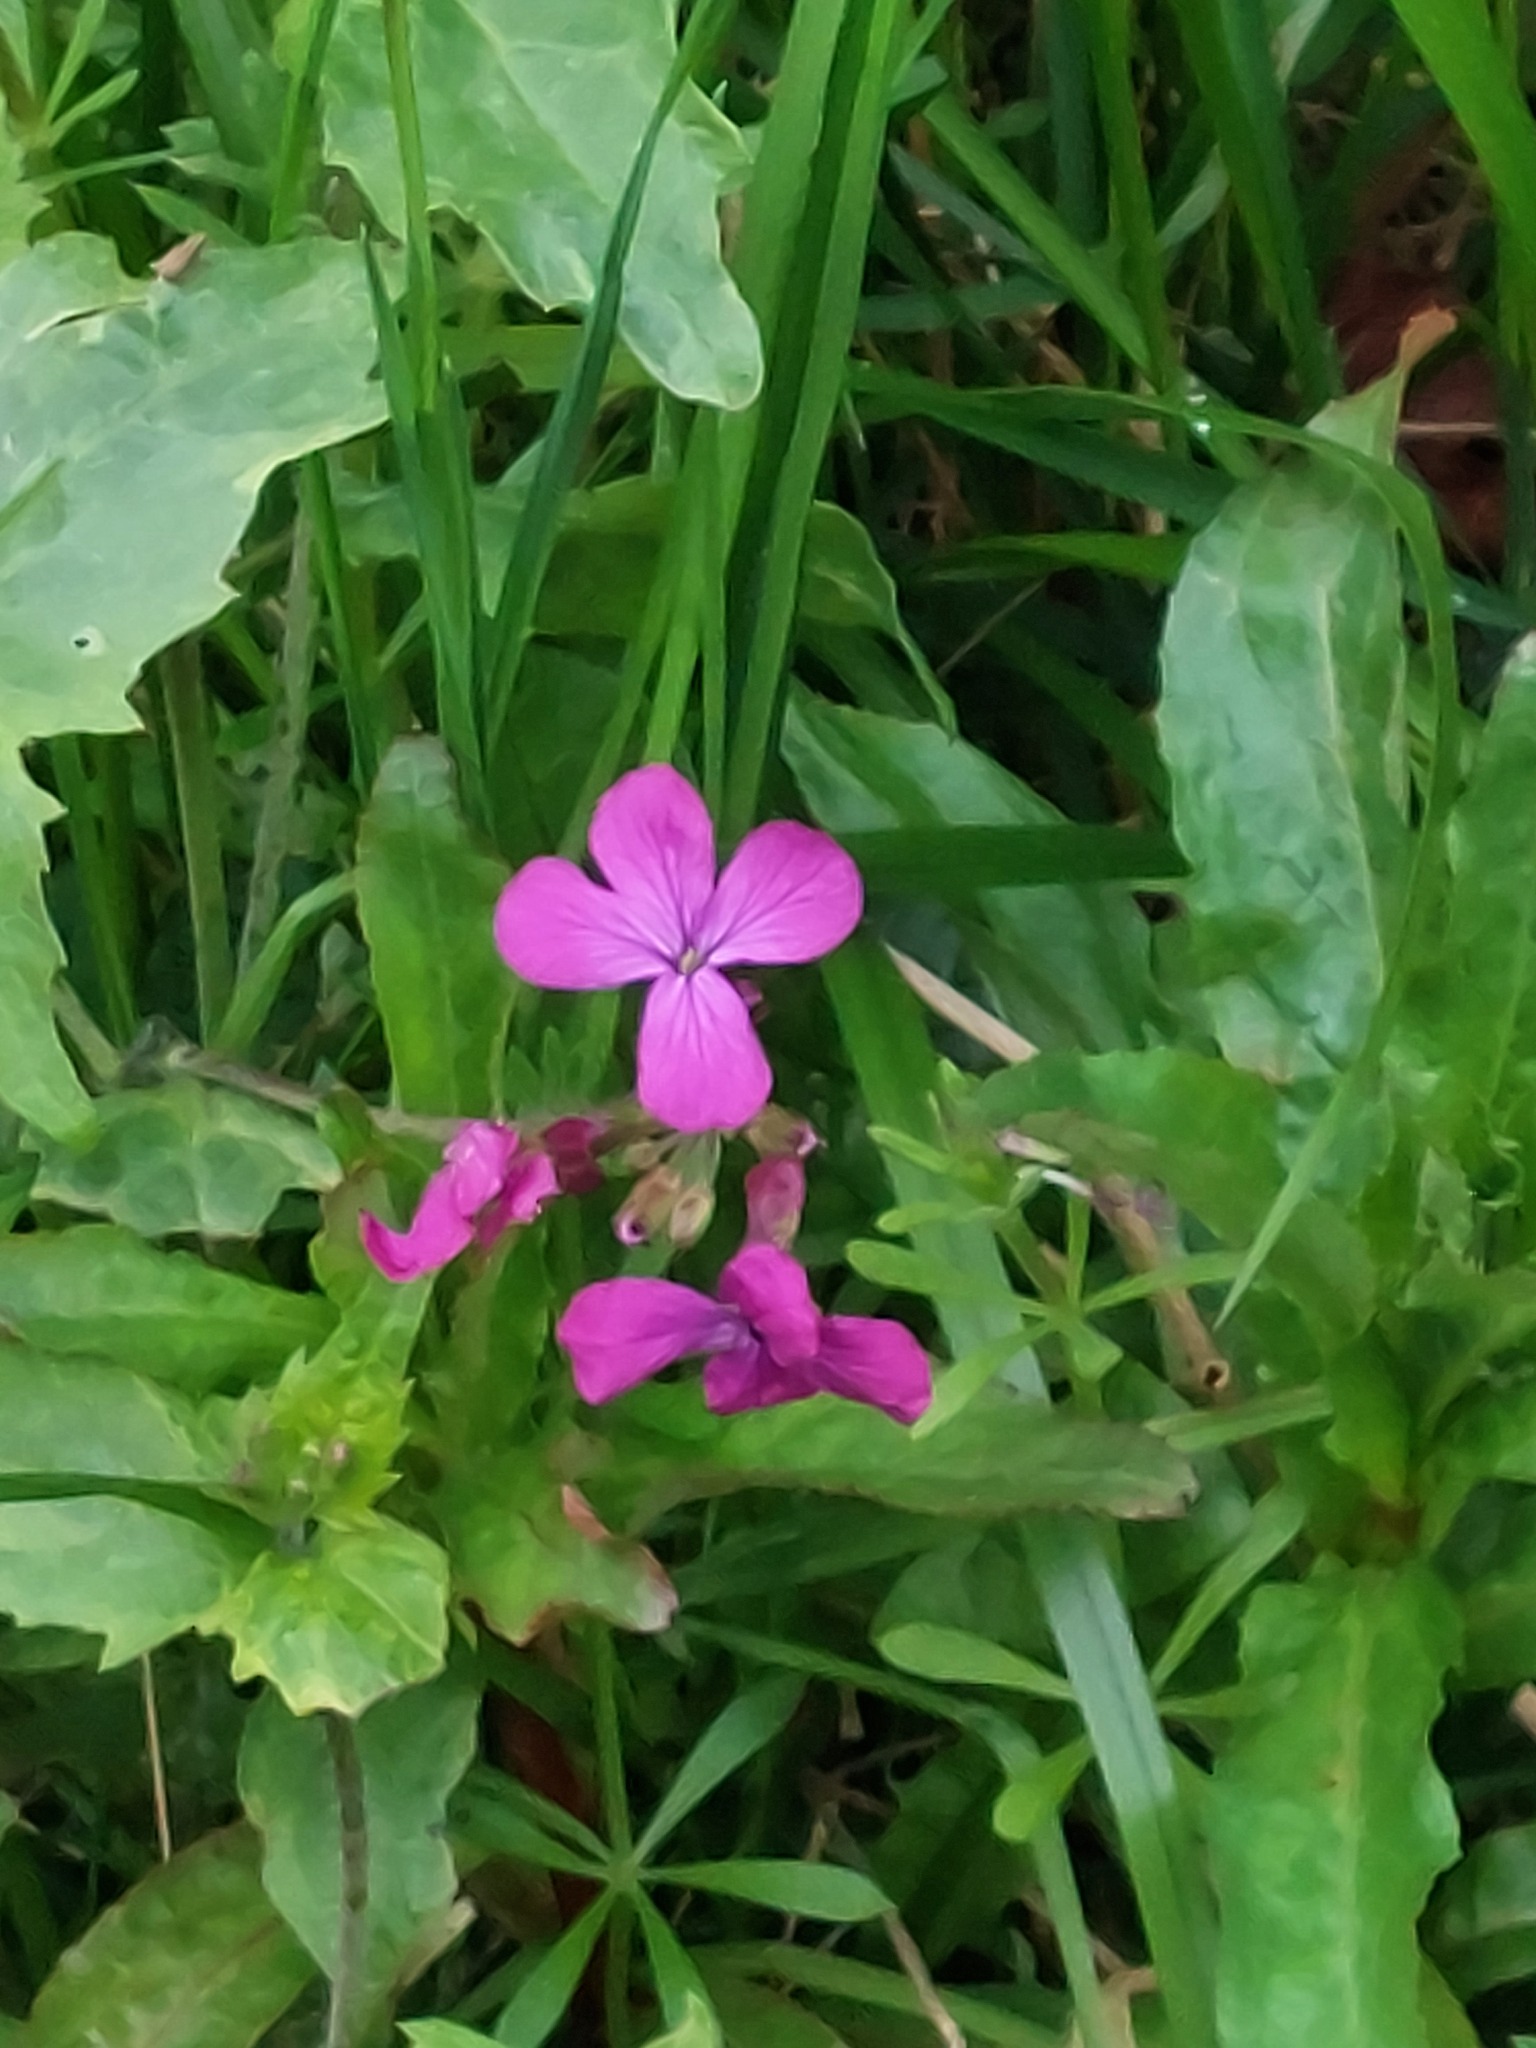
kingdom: Plantae
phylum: Tracheophyta
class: Magnoliopsida
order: Brassicales
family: Brassicaceae
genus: Lunaria
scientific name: Lunaria annua
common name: Honesty
